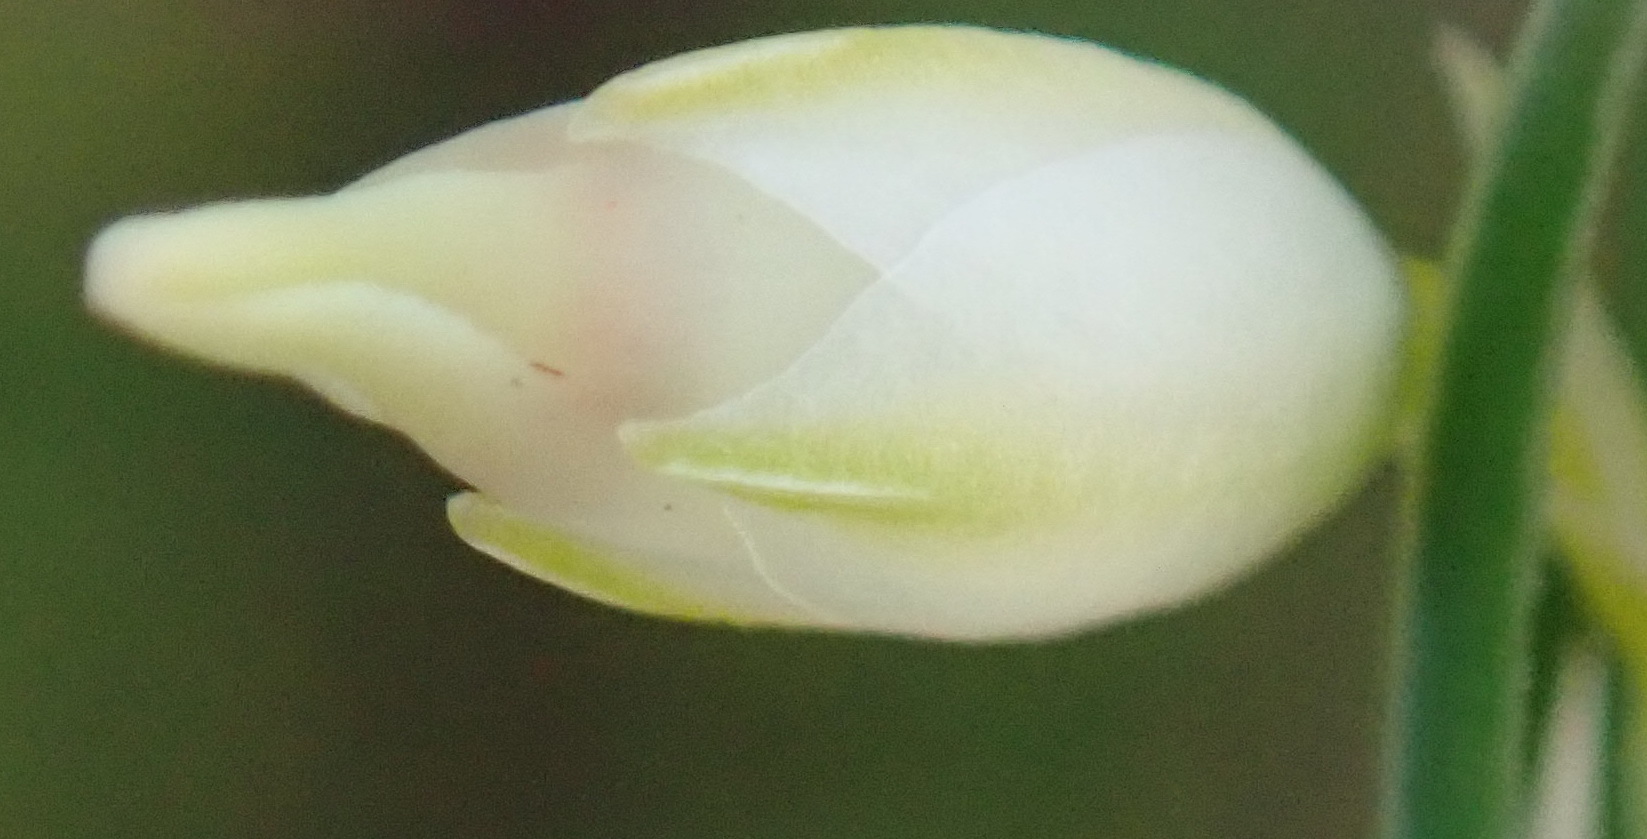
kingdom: Plantae
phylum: Tracheophyta
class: Magnoliopsida
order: Ericales
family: Ericaceae
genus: Erica
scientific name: Erica albens
